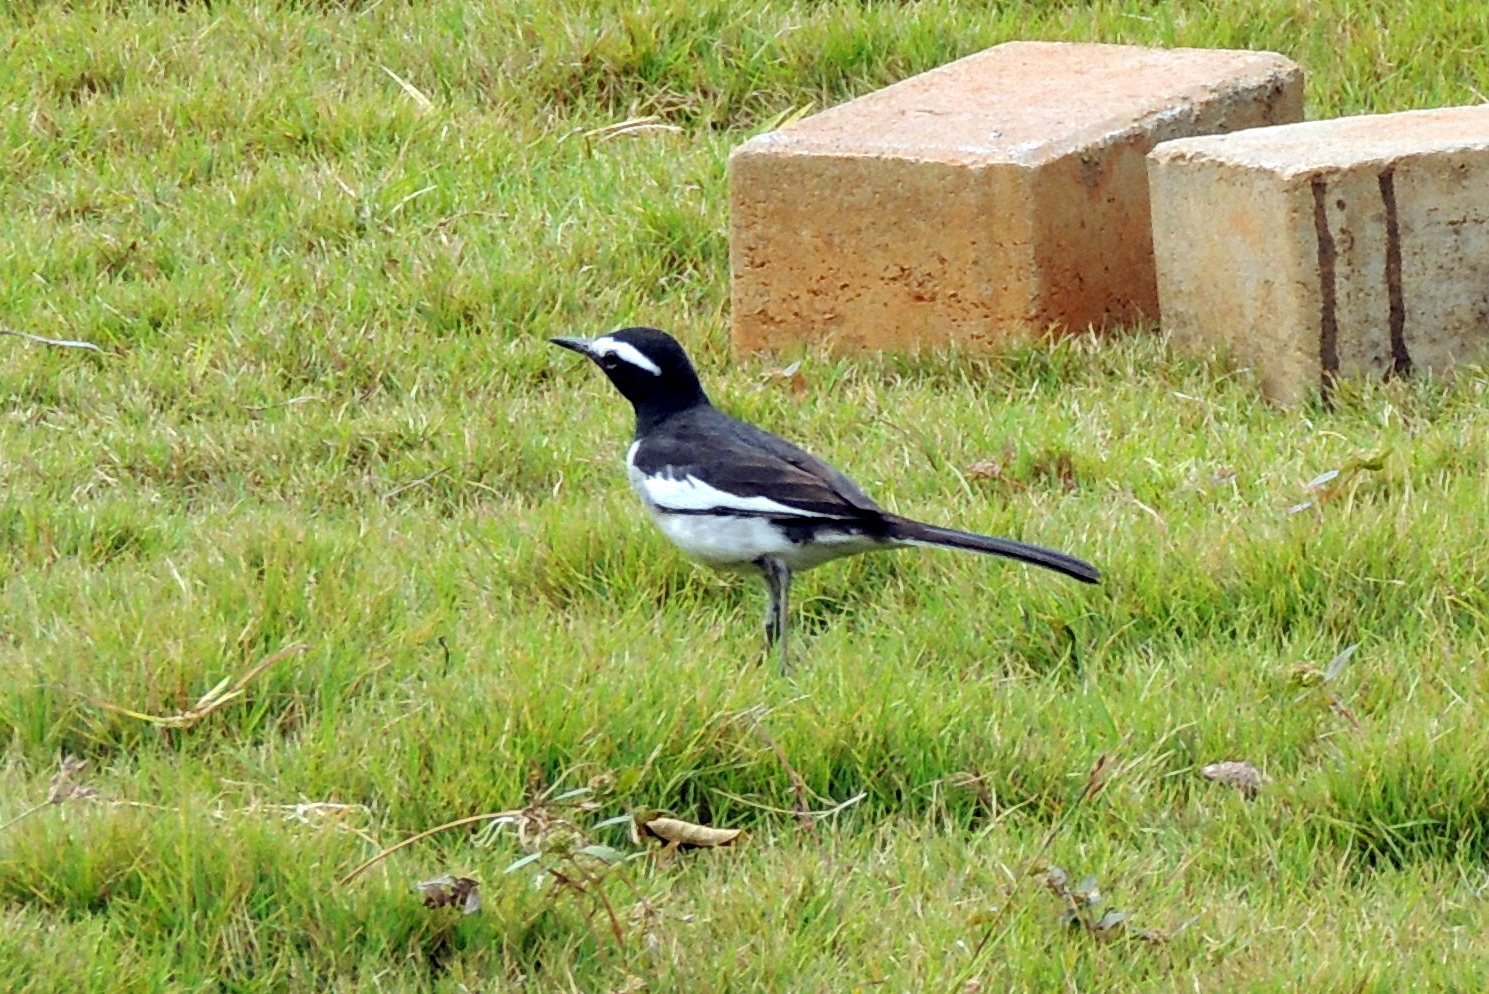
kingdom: Animalia
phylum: Chordata
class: Aves
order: Passeriformes
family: Motacillidae
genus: Motacilla
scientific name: Motacilla maderaspatensis
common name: White-browed wagtail
